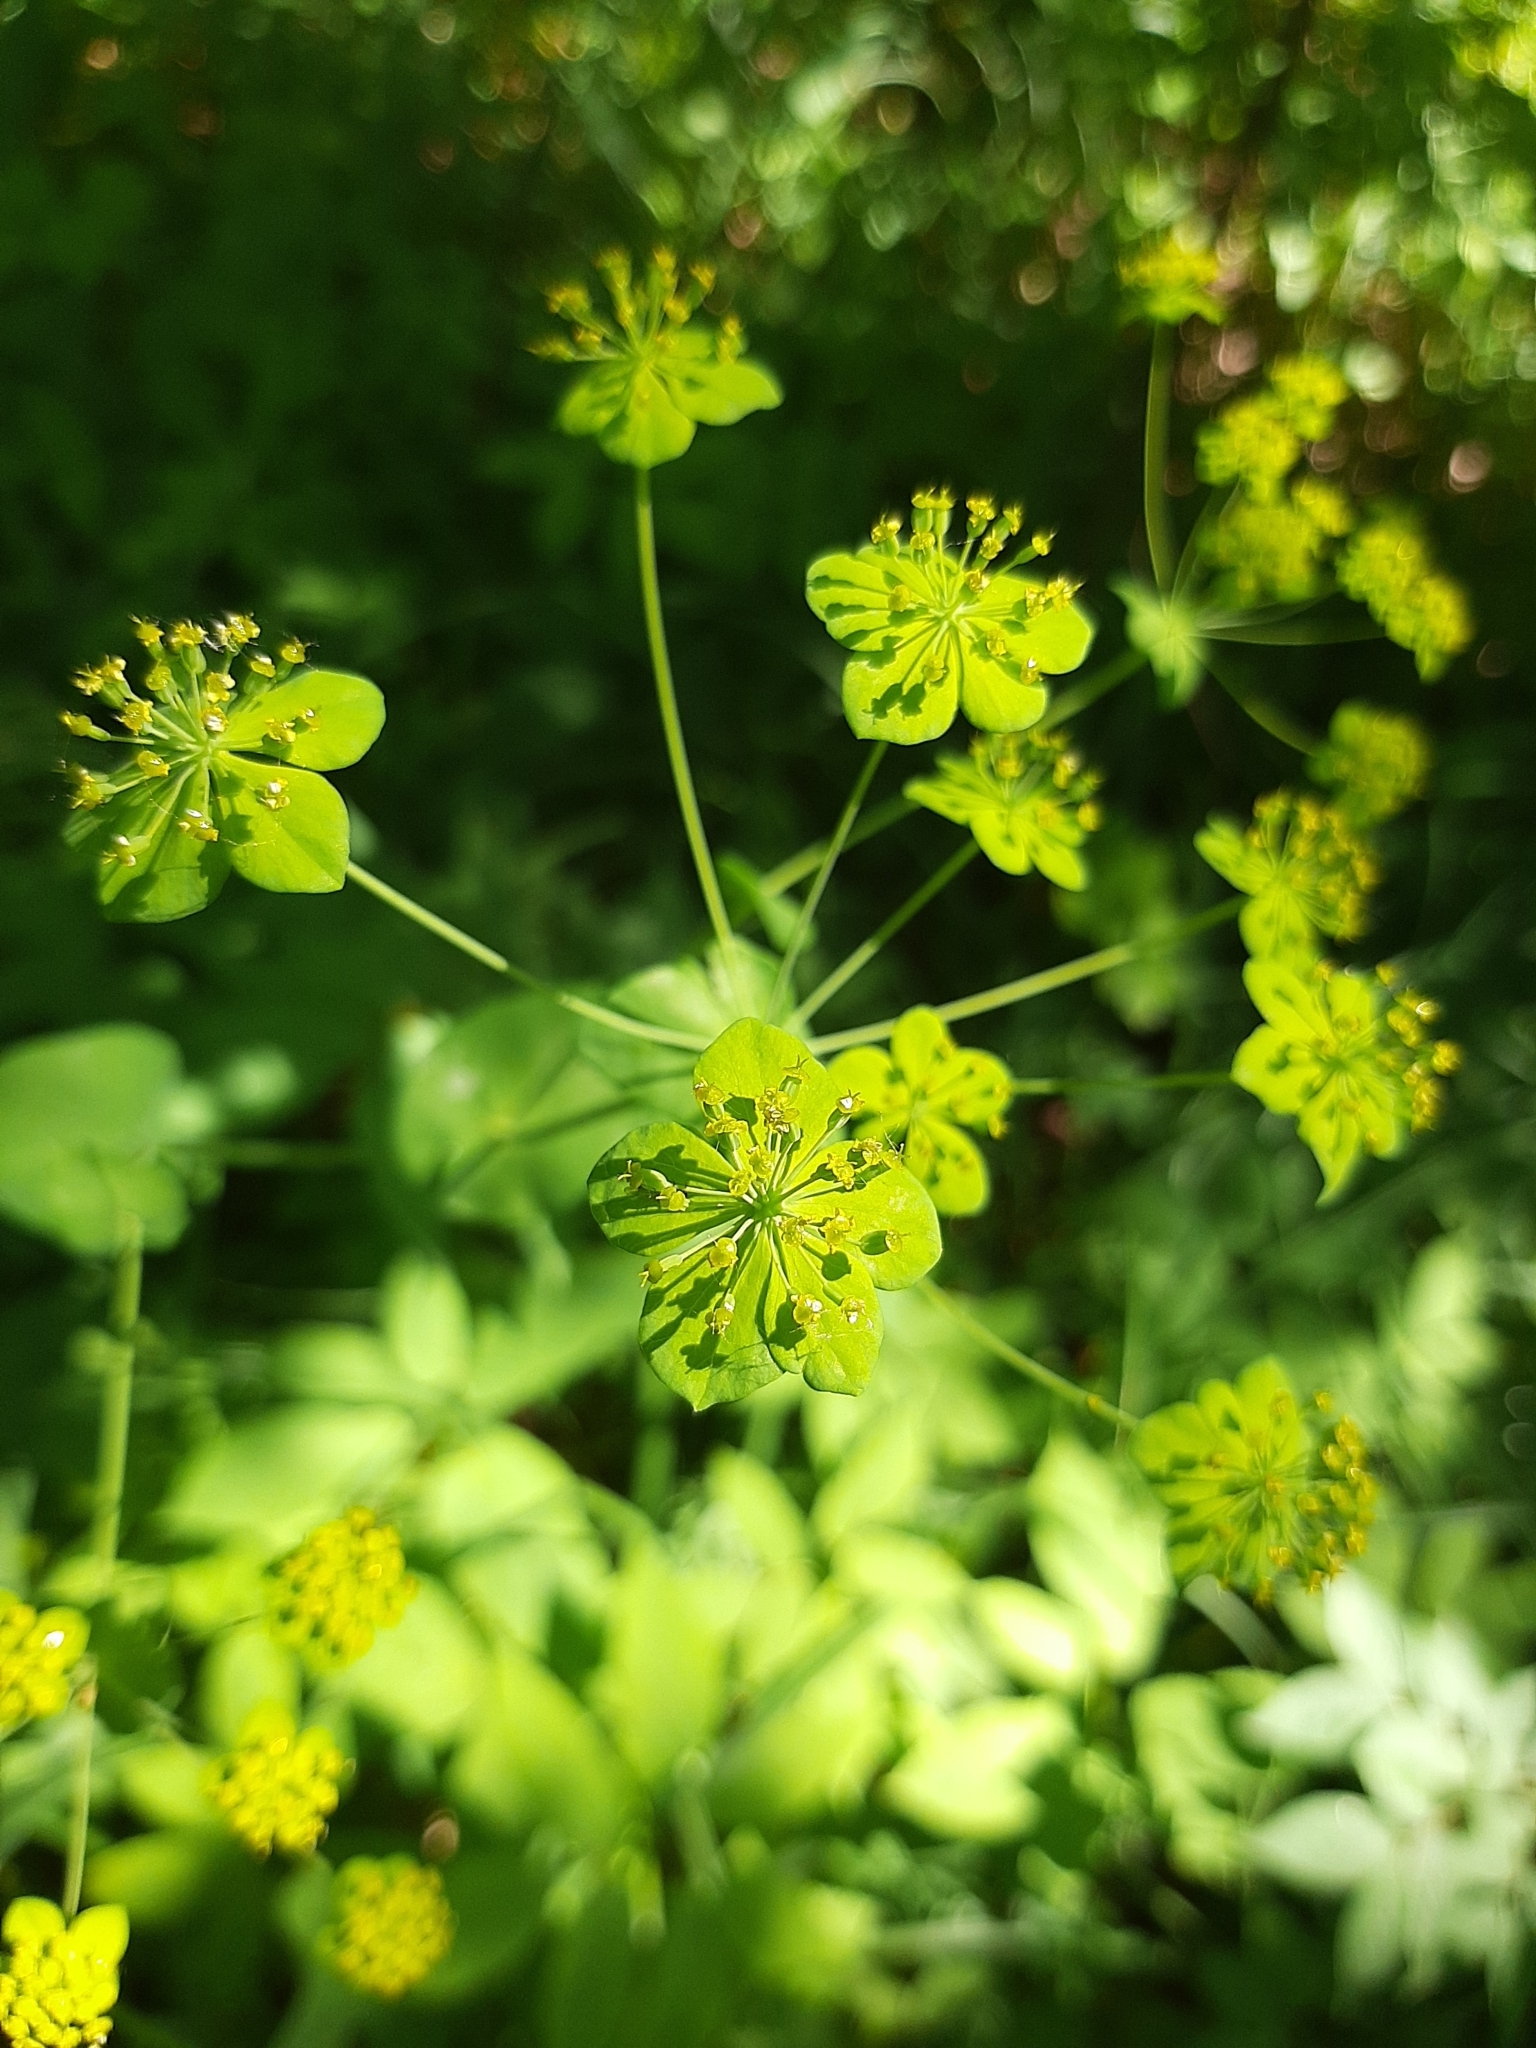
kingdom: Plantae
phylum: Tracheophyta
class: Magnoliopsida
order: Apiales
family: Apiaceae
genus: Bupleurum
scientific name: Bupleurum aureum
